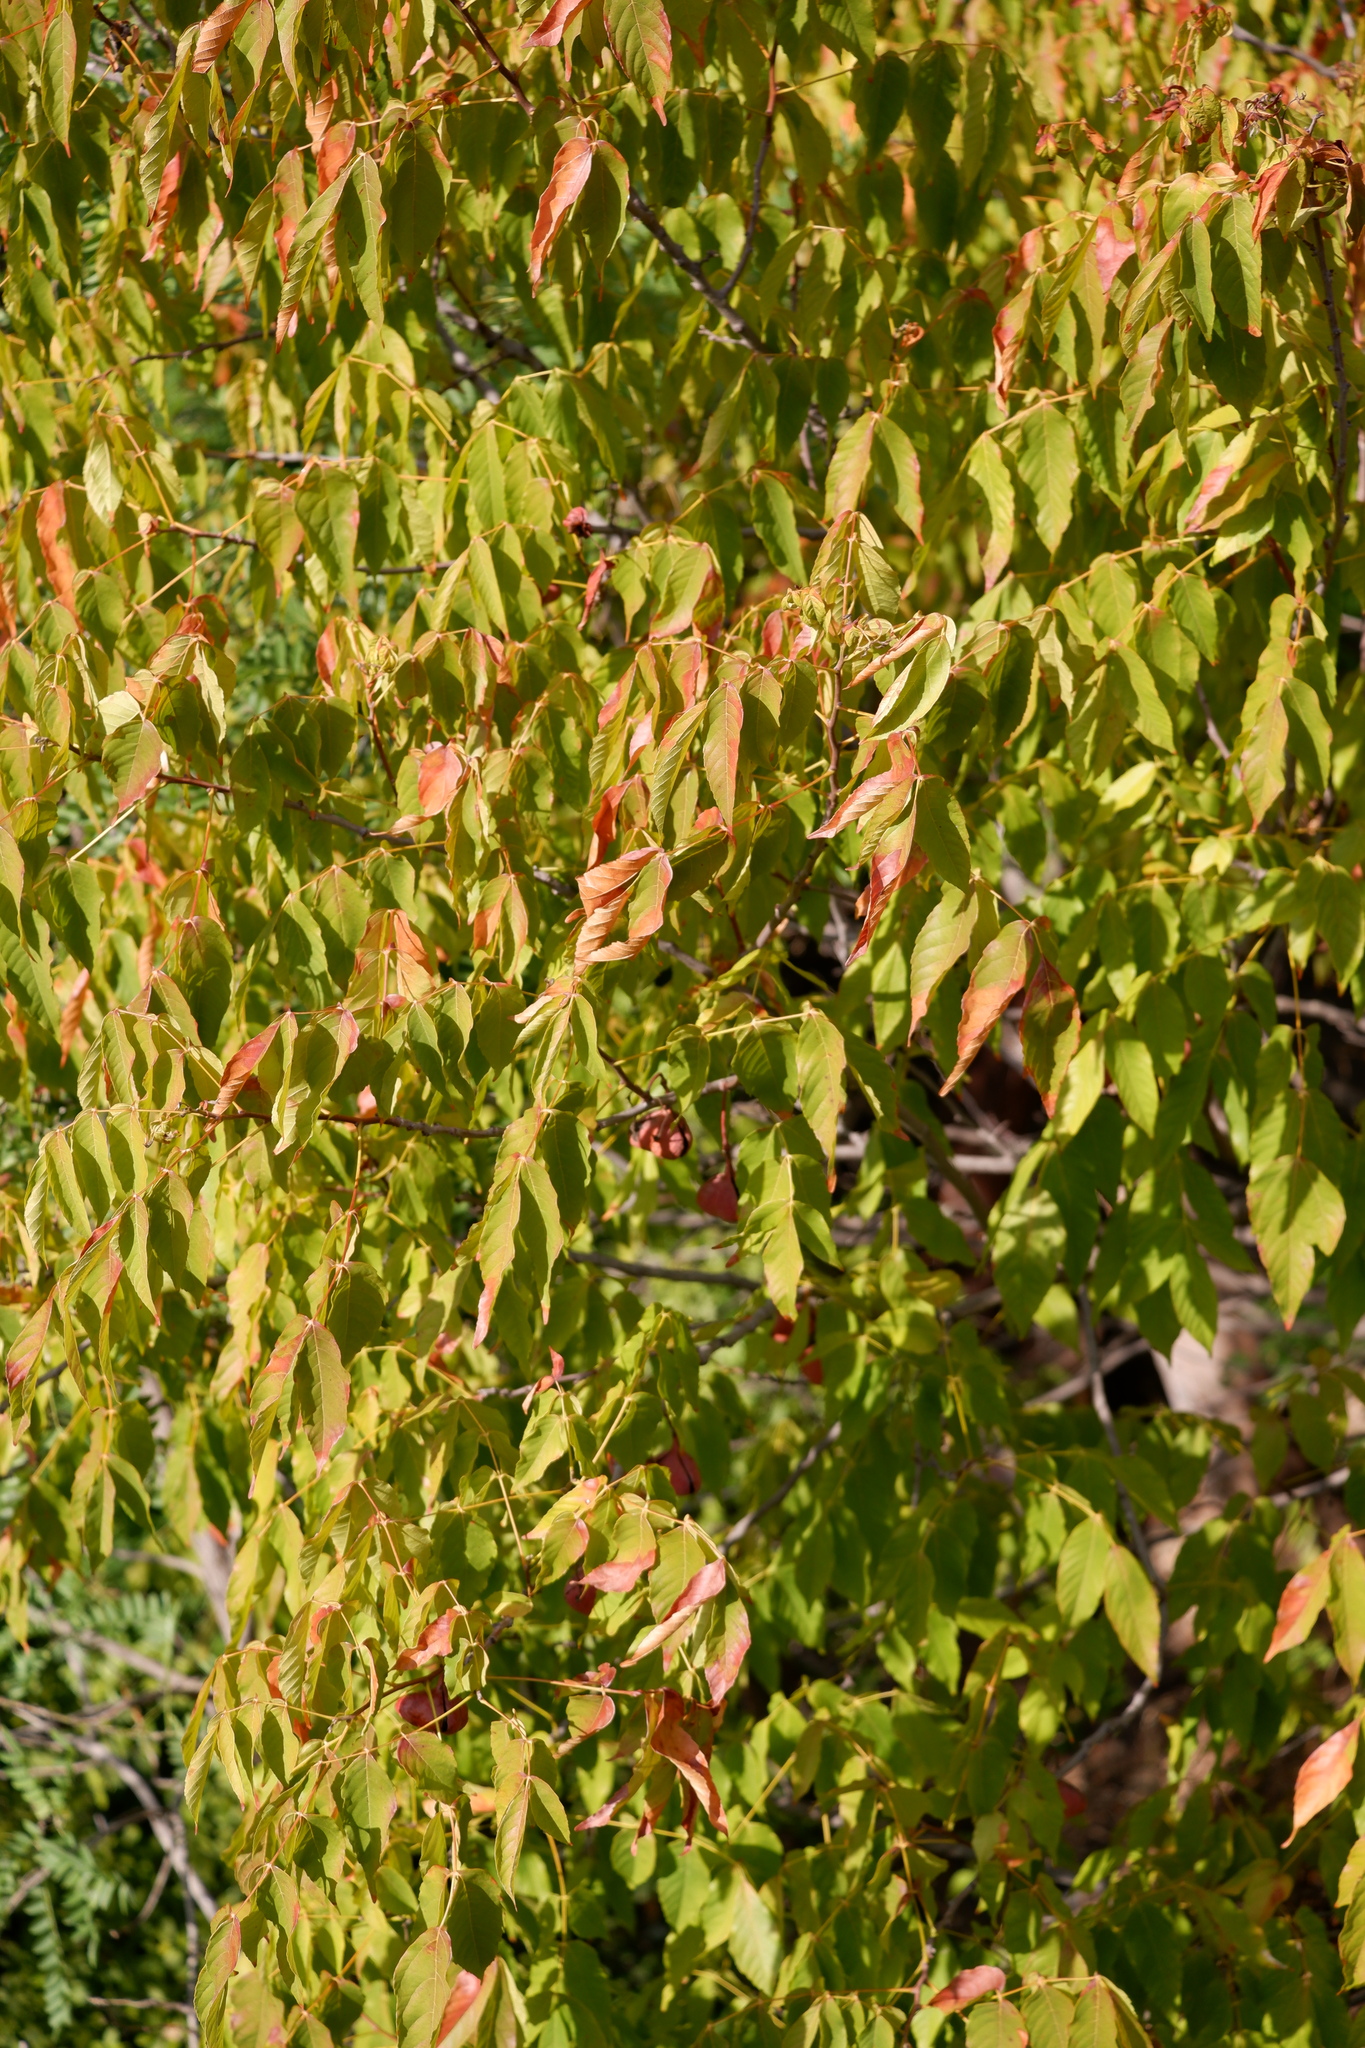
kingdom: Plantae
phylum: Tracheophyta
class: Magnoliopsida
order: Sapindales
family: Sapindaceae
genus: Ungnadia
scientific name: Ungnadia speciosa
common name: Texas-buckeye
